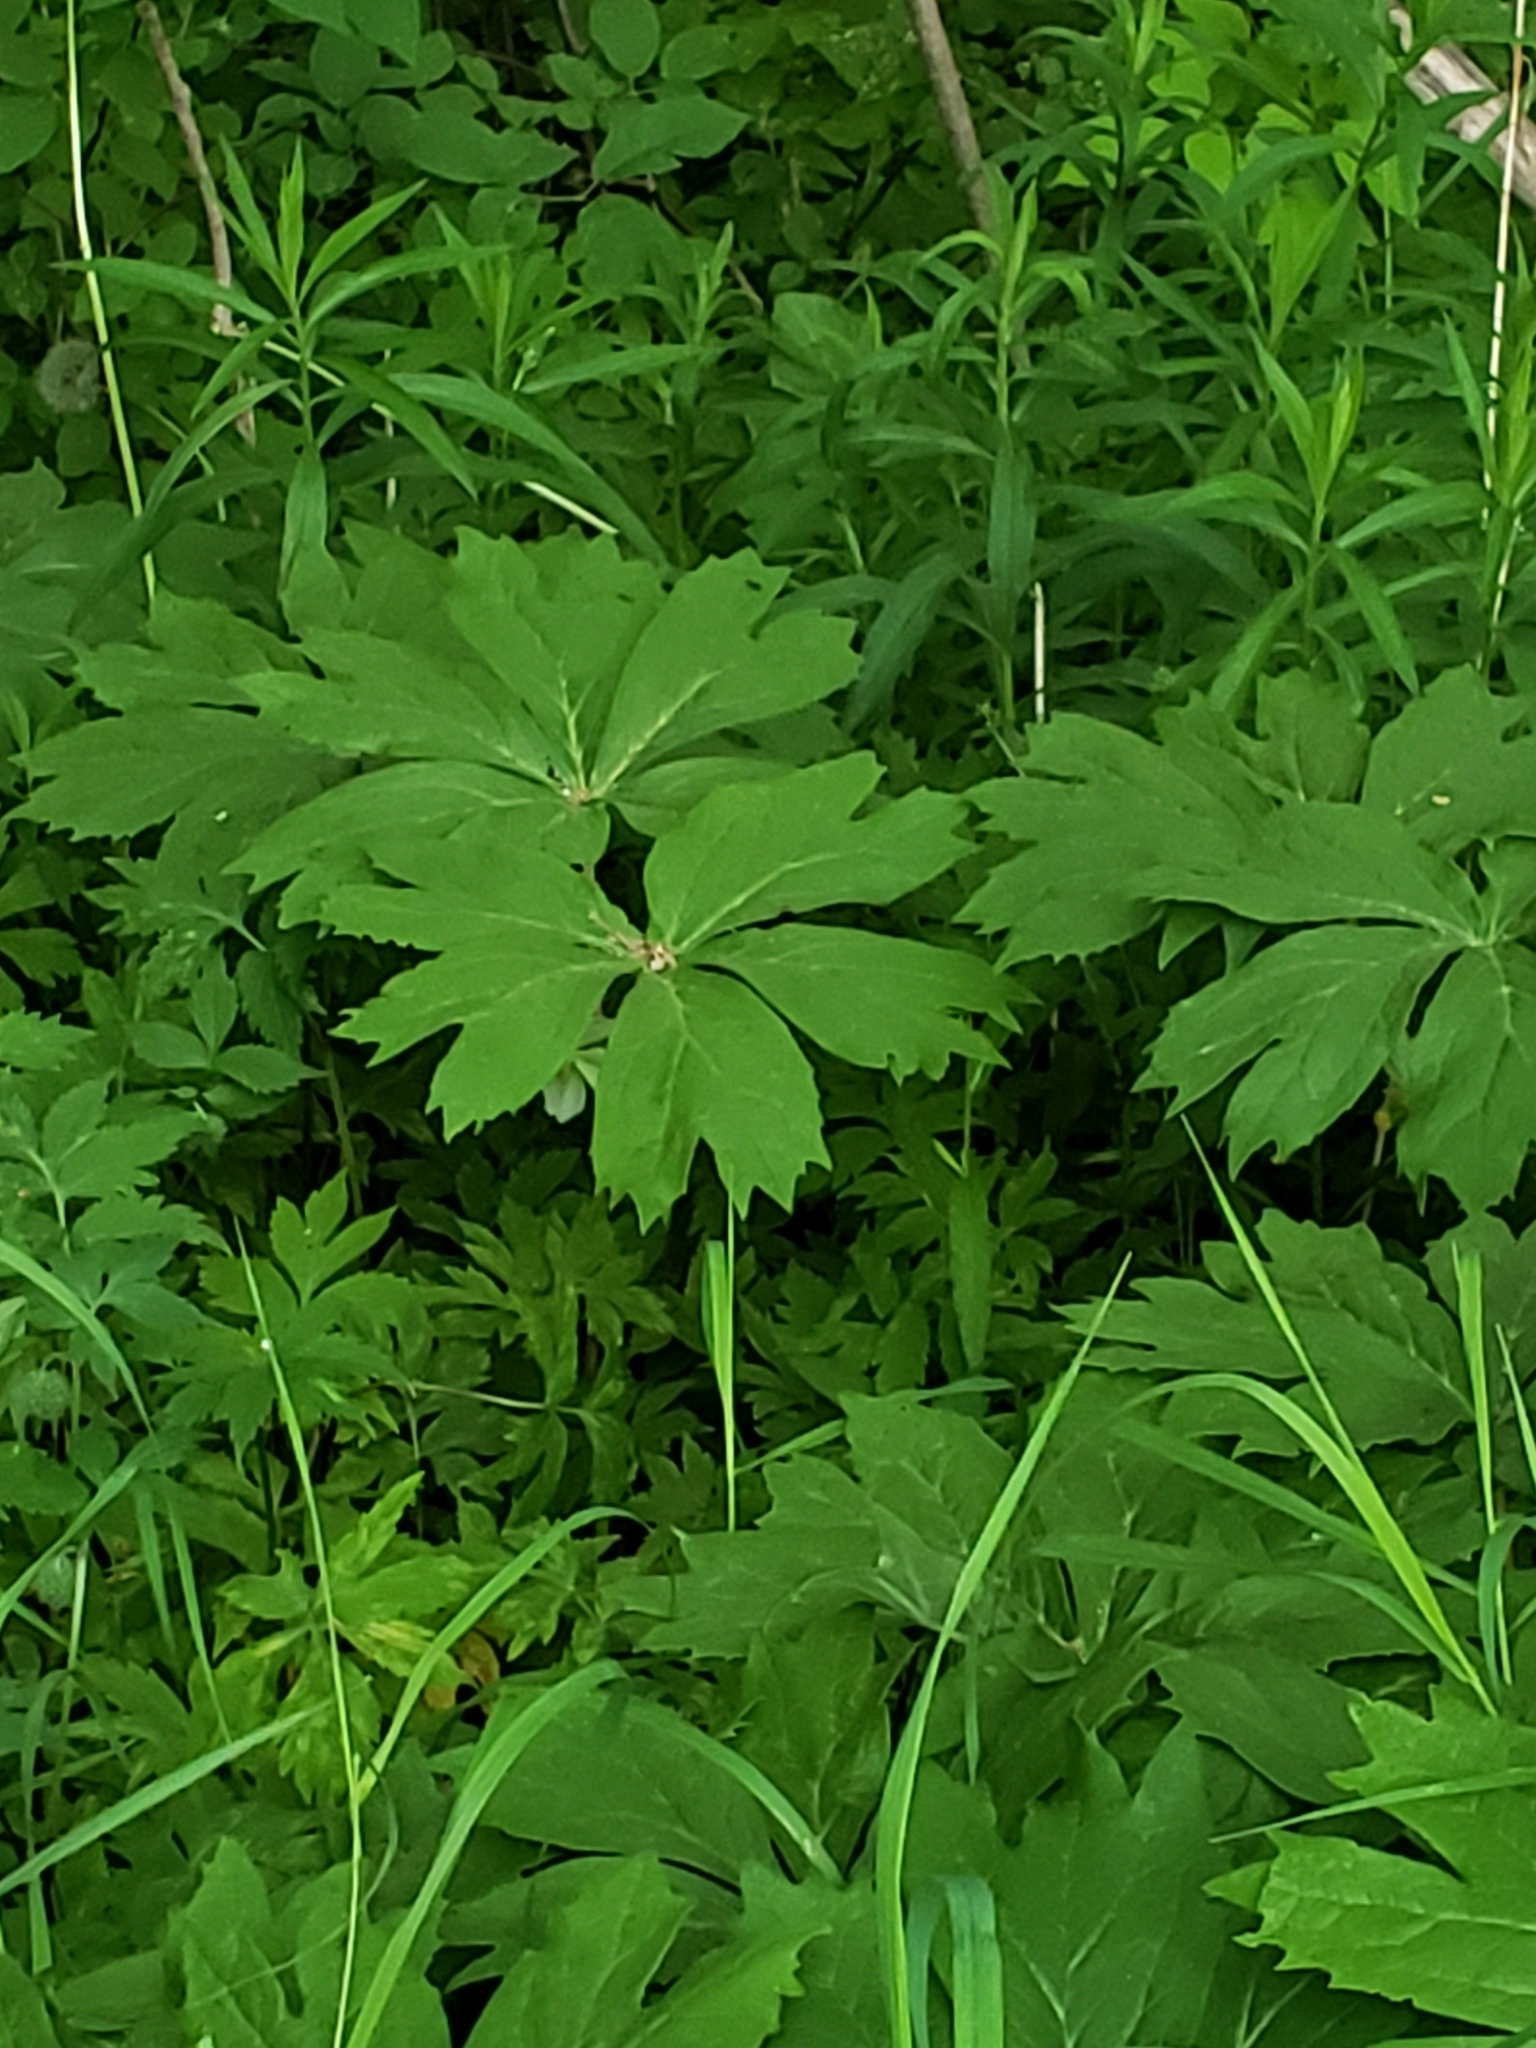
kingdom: Plantae
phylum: Tracheophyta
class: Magnoliopsida
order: Ranunculales
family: Berberidaceae
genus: Podophyllum
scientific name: Podophyllum peltatum
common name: Wild mandrake
